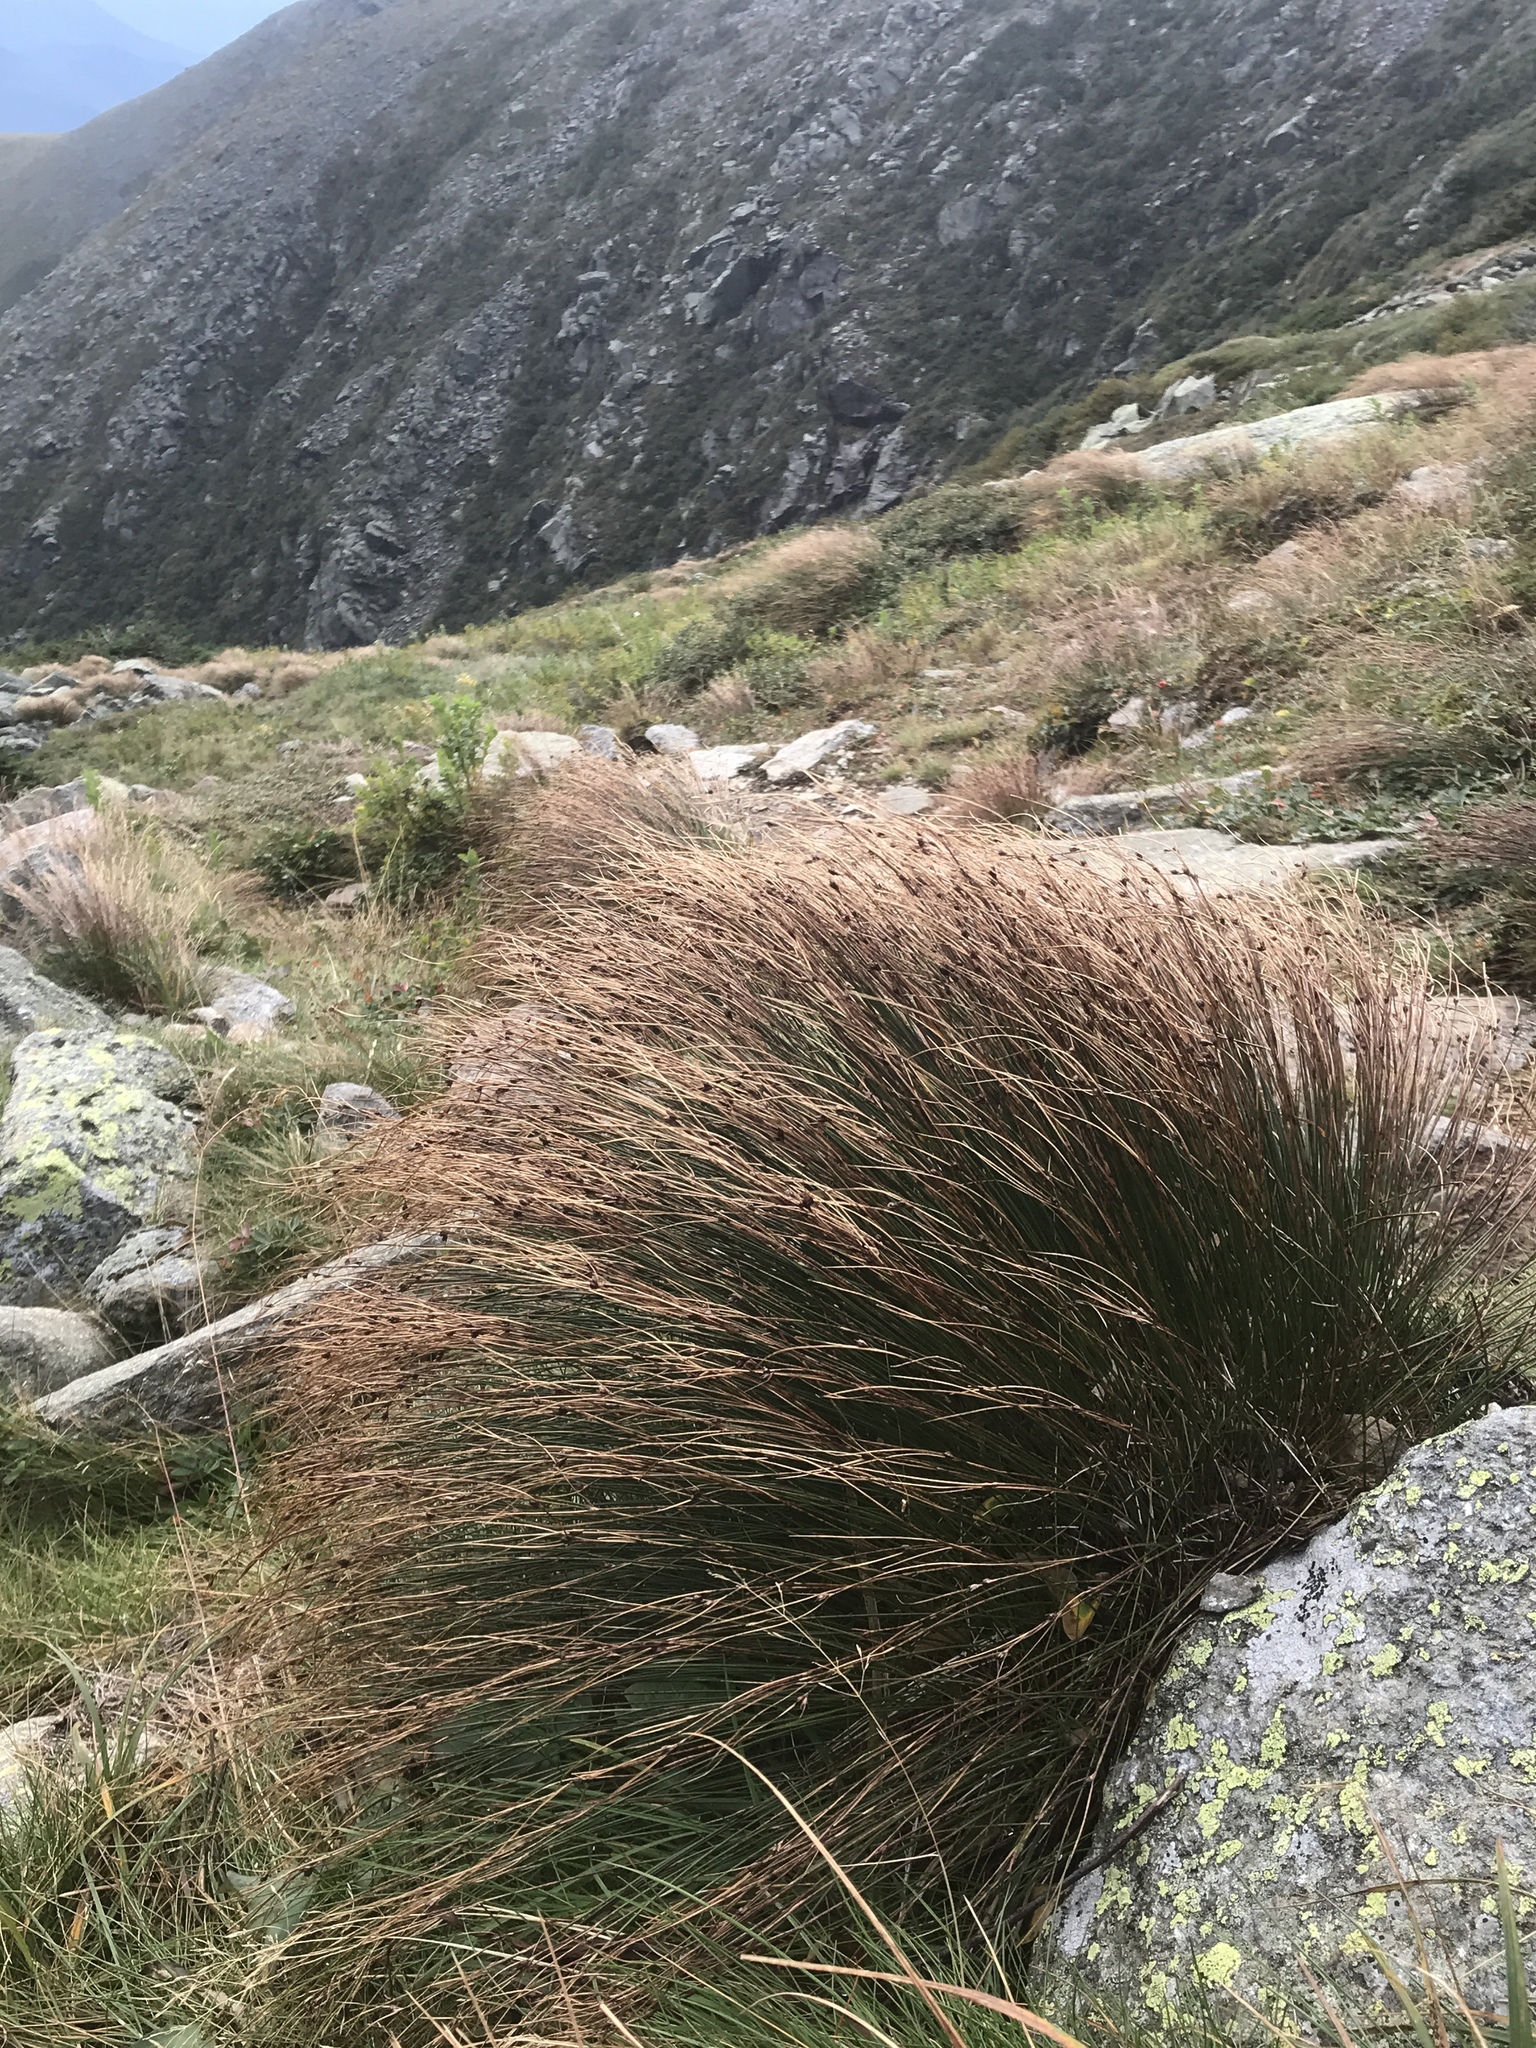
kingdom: Plantae
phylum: Tracheophyta
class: Liliopsida
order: Poales
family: Juncaceae
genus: Oreojuncus
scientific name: Oreojuncus trifidus
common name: Highland rush
